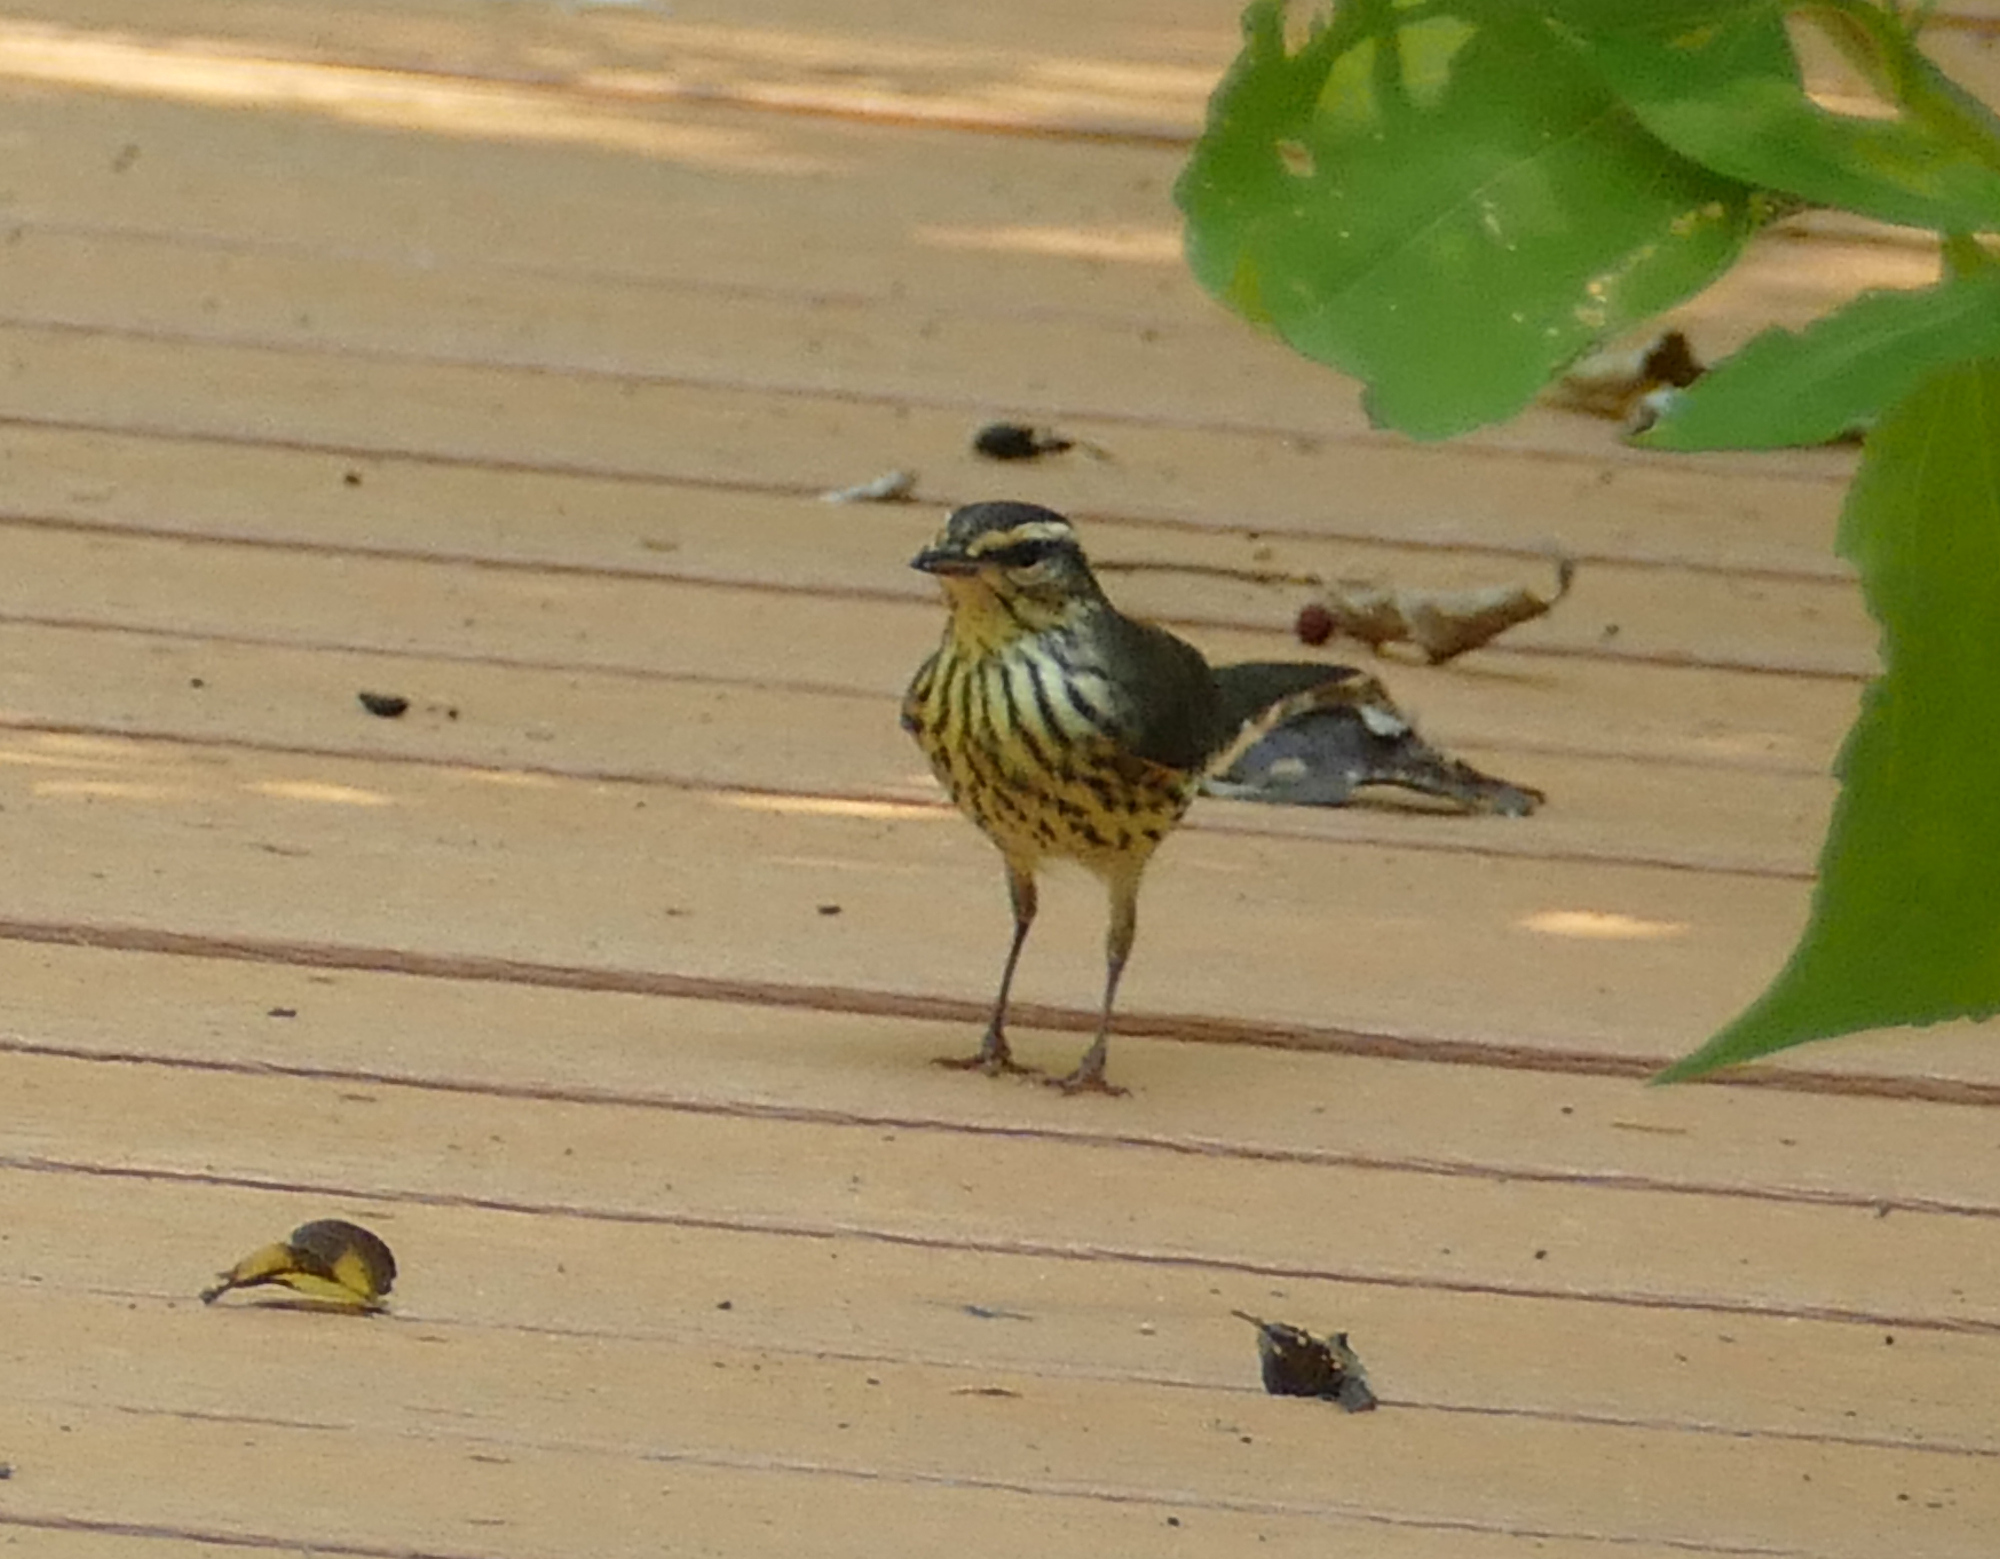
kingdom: Animalia
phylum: Chordata
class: Aves
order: Passeriformes
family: Parulidae
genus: Parkesia
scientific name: Parkesia noveboracensis
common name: Northern waterthrush
